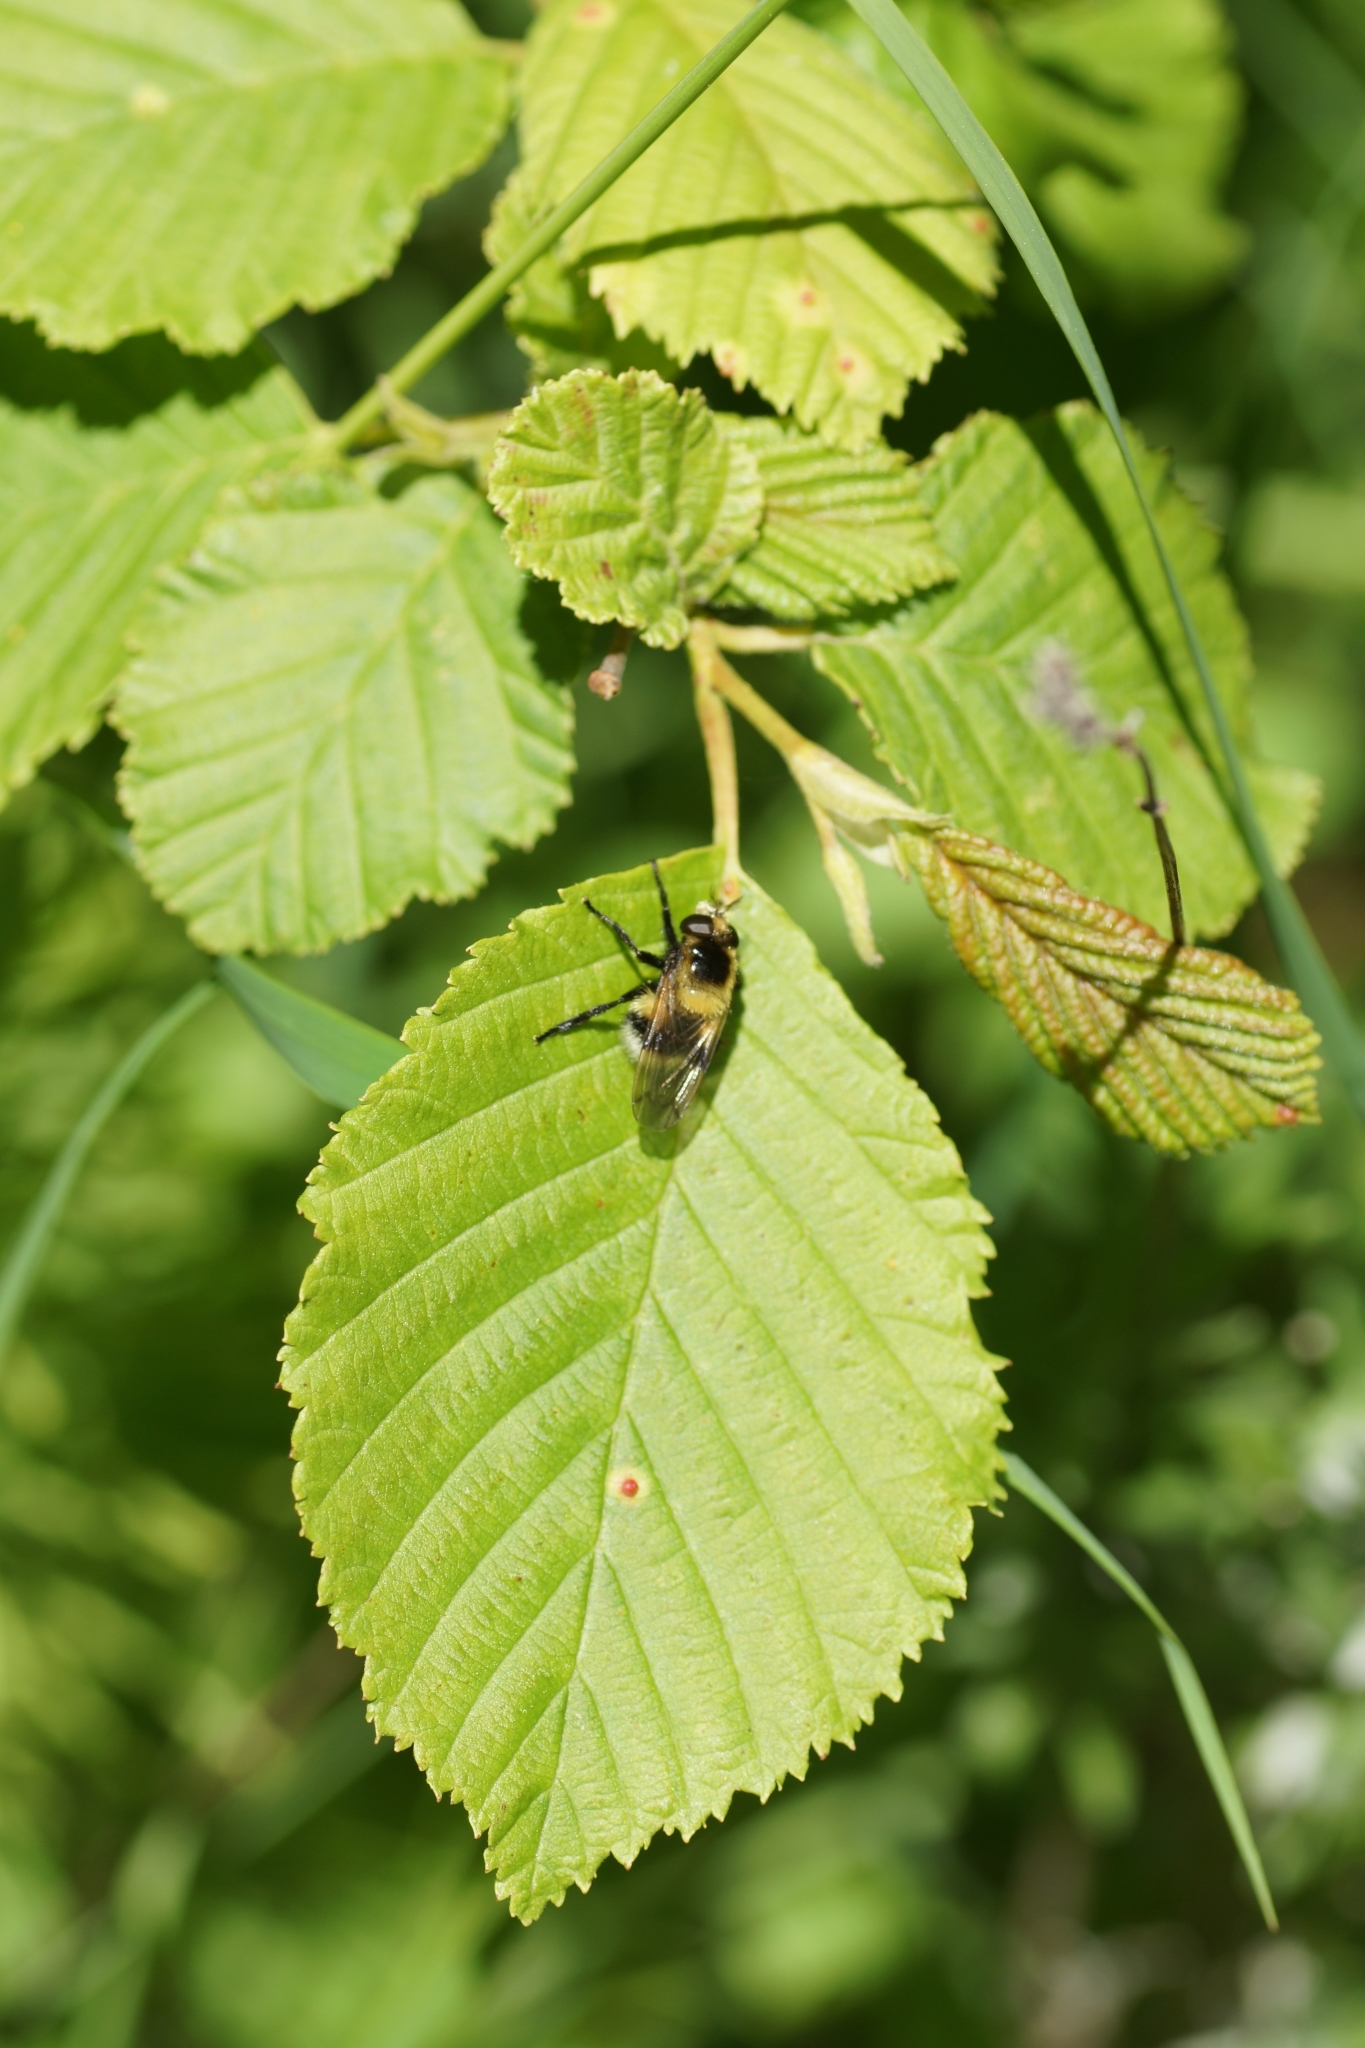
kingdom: Animalia
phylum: Arthropoda
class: Insecta
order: Diptera
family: Syrphidae
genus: Volucella
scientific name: Volucella bombylans
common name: Bumble bee hover fly
